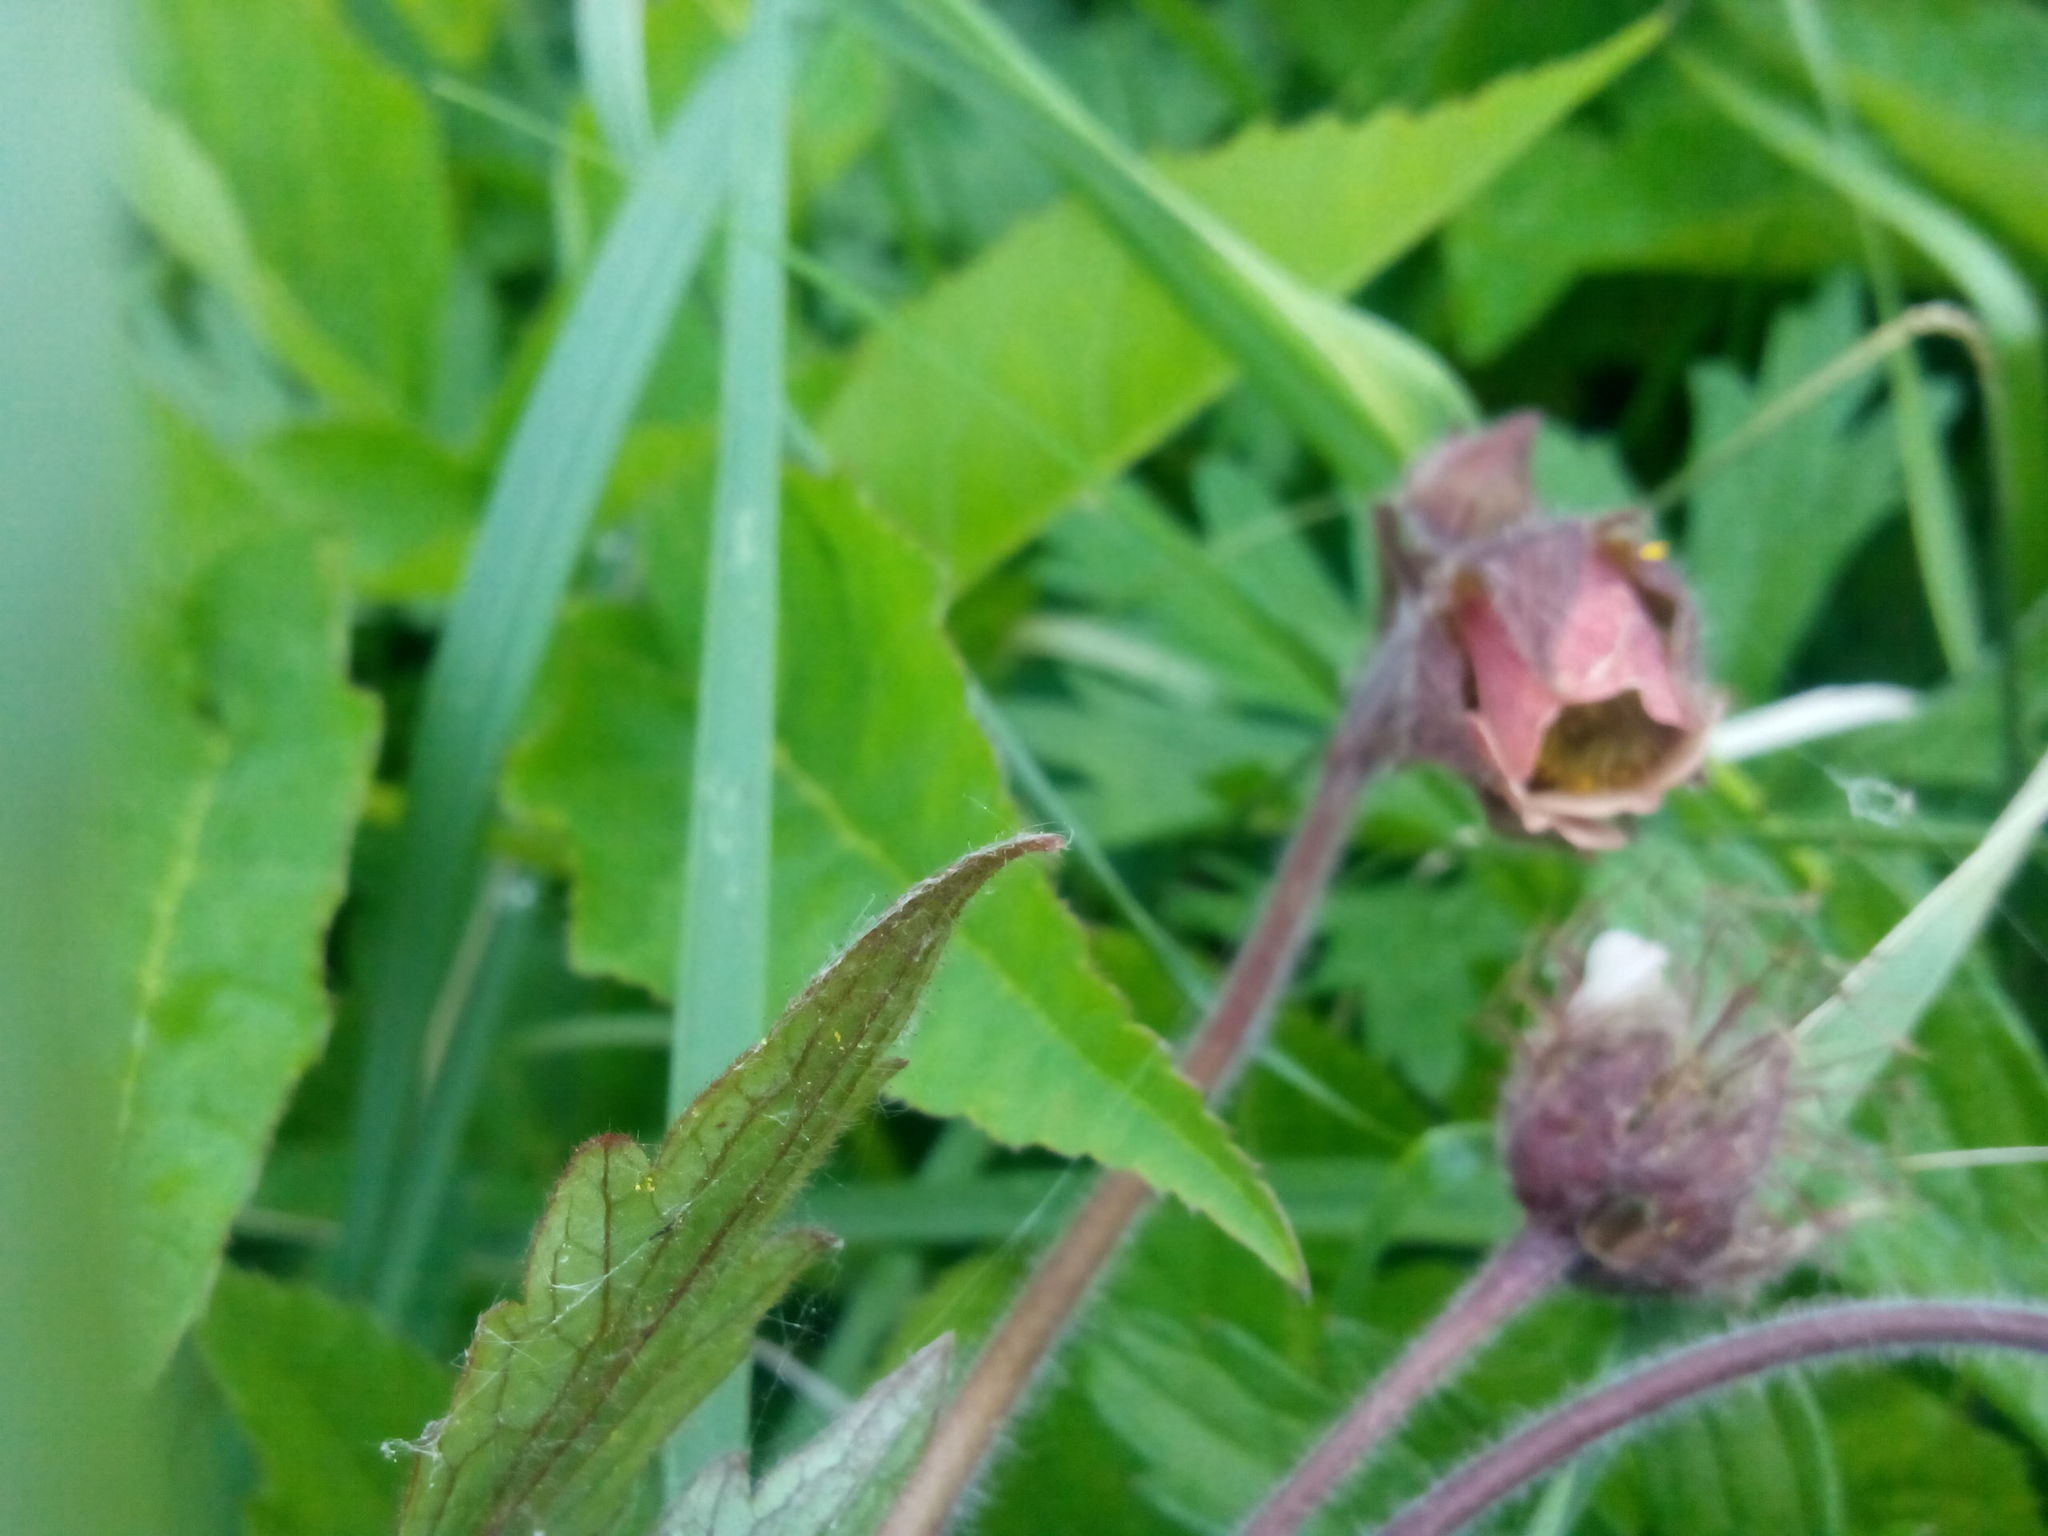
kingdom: Plantae
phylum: Tracheophyta
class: Magnoliopsida
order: Rosales
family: Rosaceae
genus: Geum
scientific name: Geum rivale
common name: Water avens
